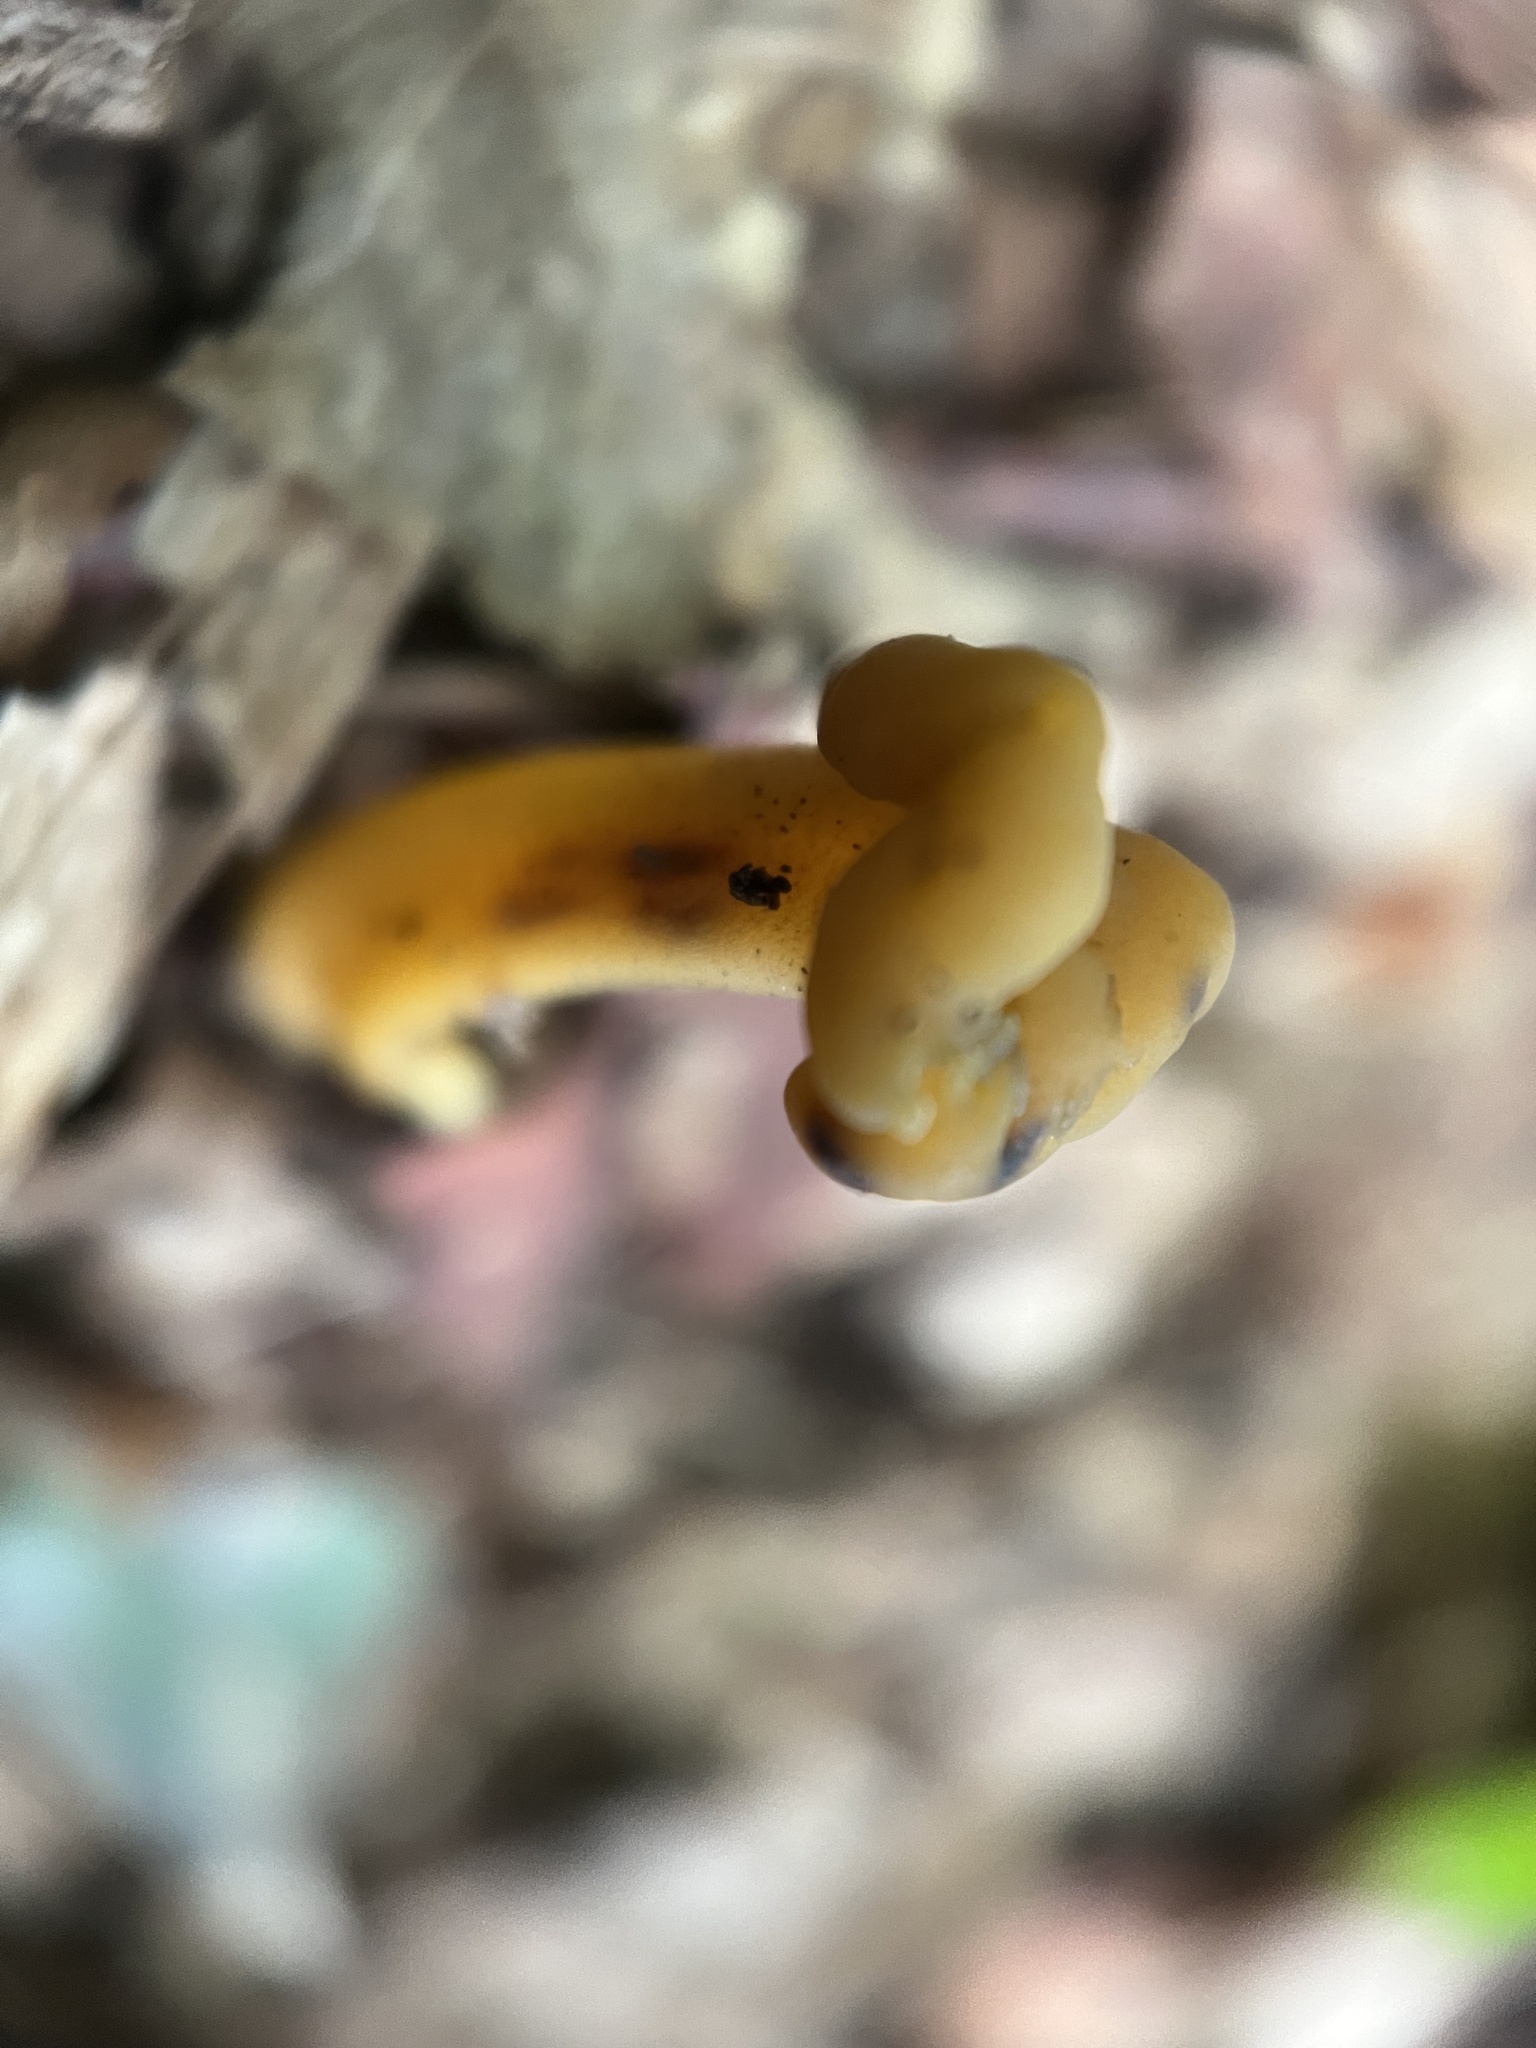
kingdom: Fungi
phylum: Ascomycota
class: Leotiomycetes
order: Leotiales
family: Leotiaceae
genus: Leotia
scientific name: Leotia lubrica
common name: Jellybaby
